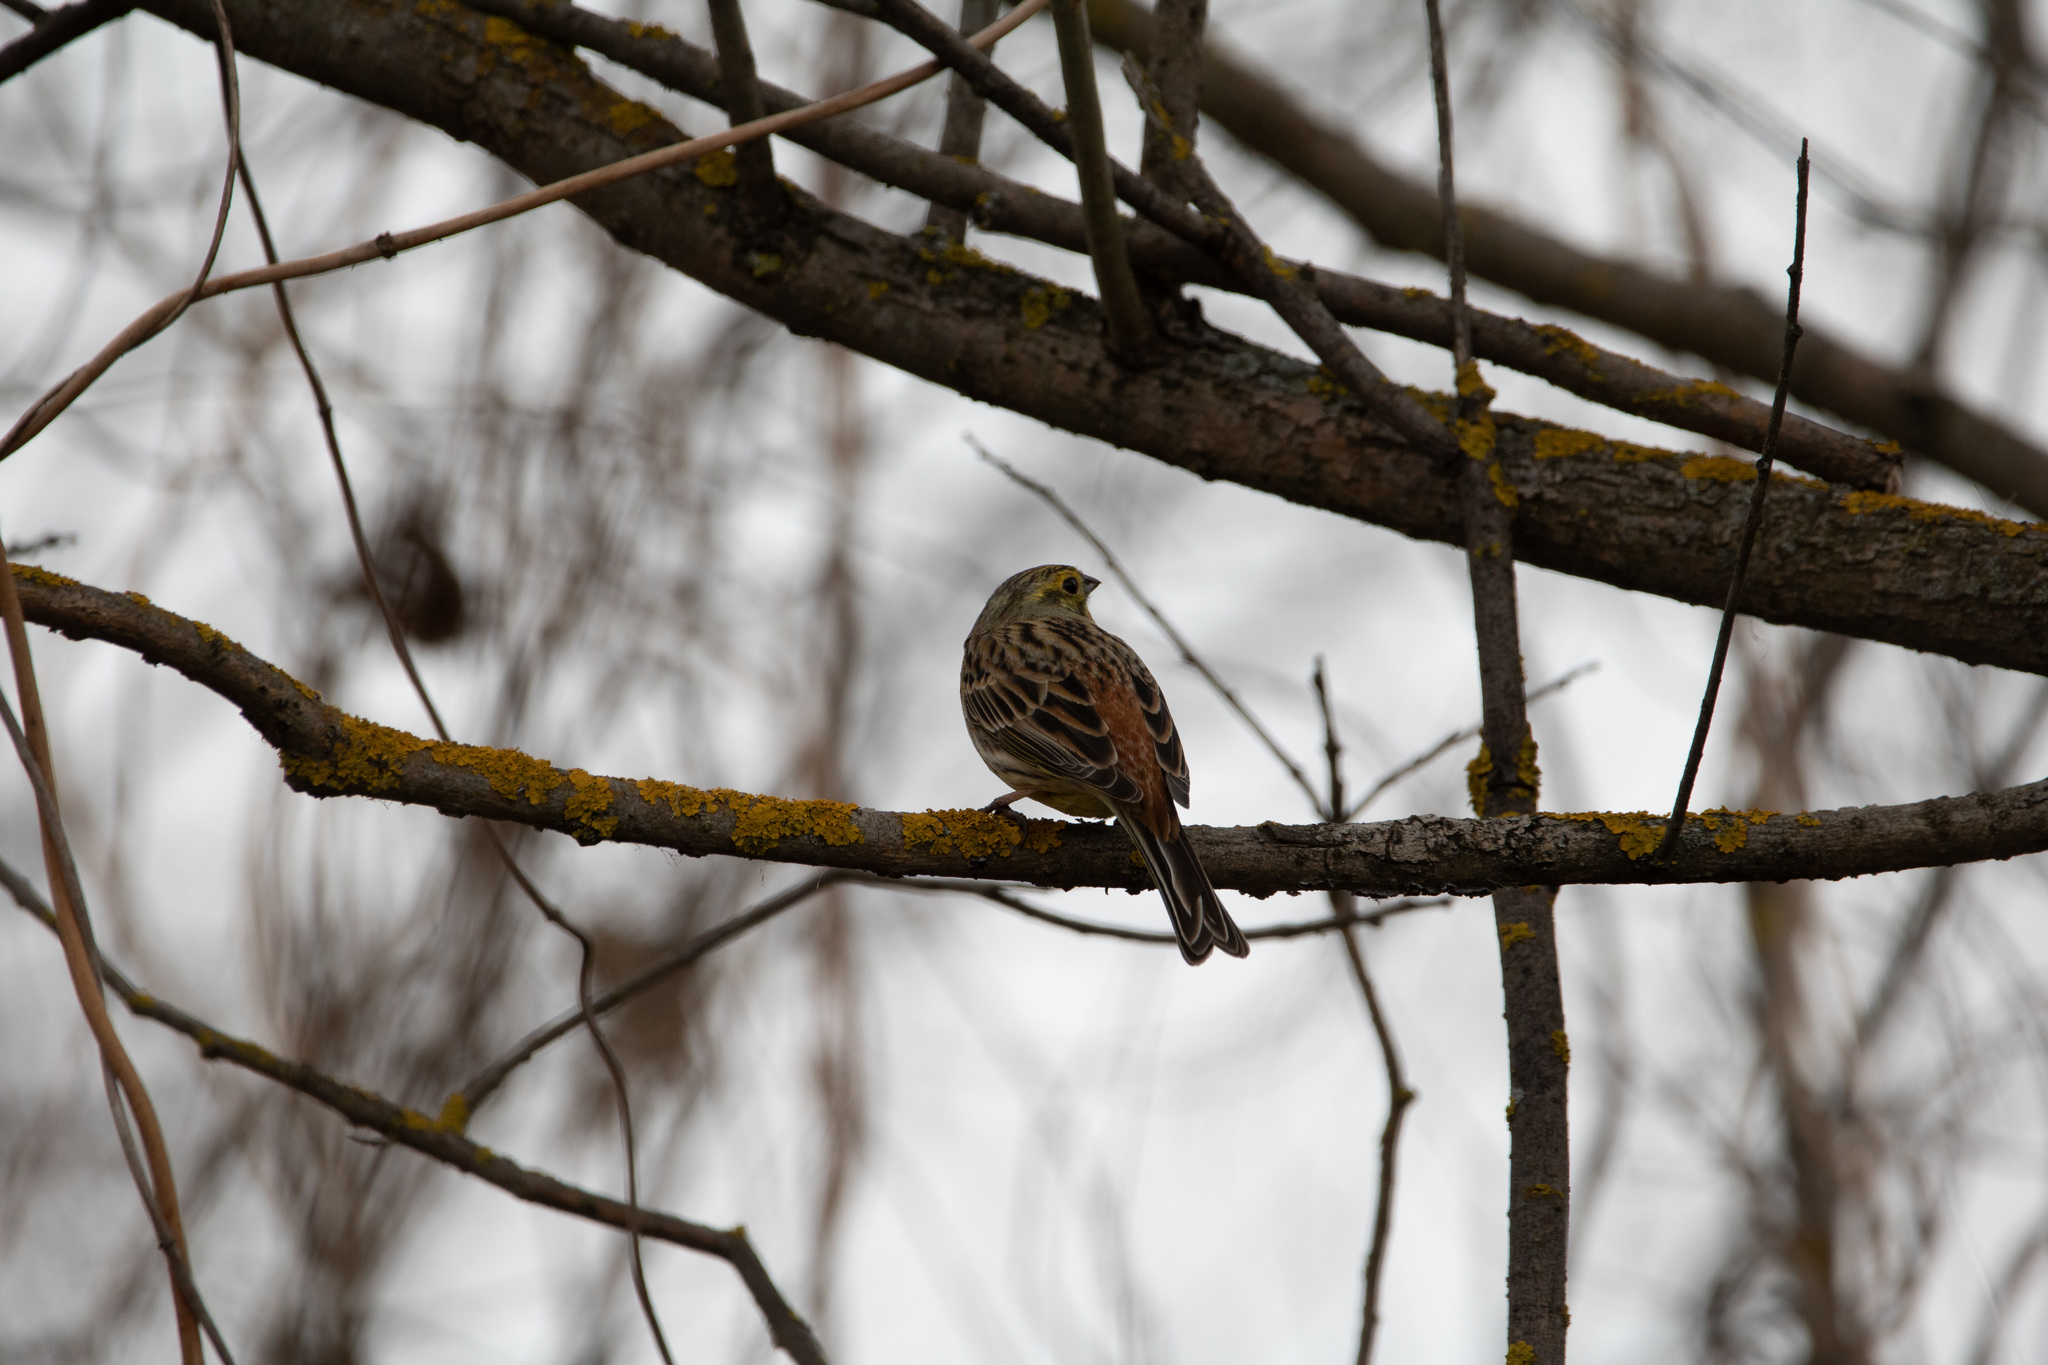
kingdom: Animalia
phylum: Chordata
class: Aves
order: Passeriformes
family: Emberizidae
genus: Emberiza
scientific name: Emberiza citrinella
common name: Yellowhammer
